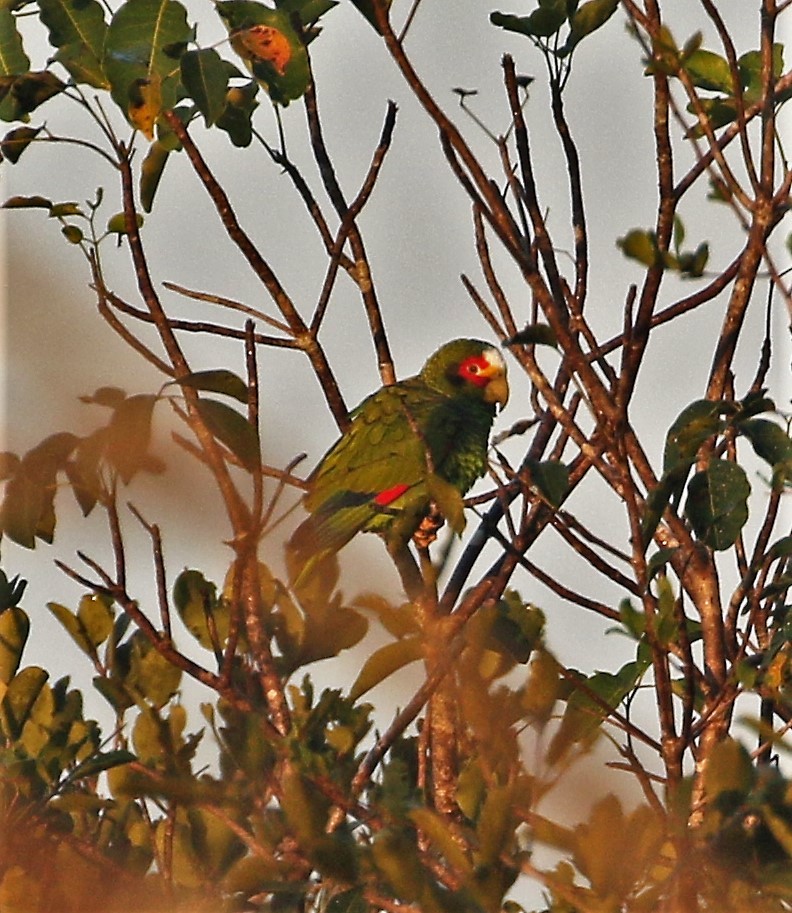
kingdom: Animalia
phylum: Chordata
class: Aves
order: Psittaciformes
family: Psittacidae
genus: Amazona
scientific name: Amazona xantholora
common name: Yucatan amazon
